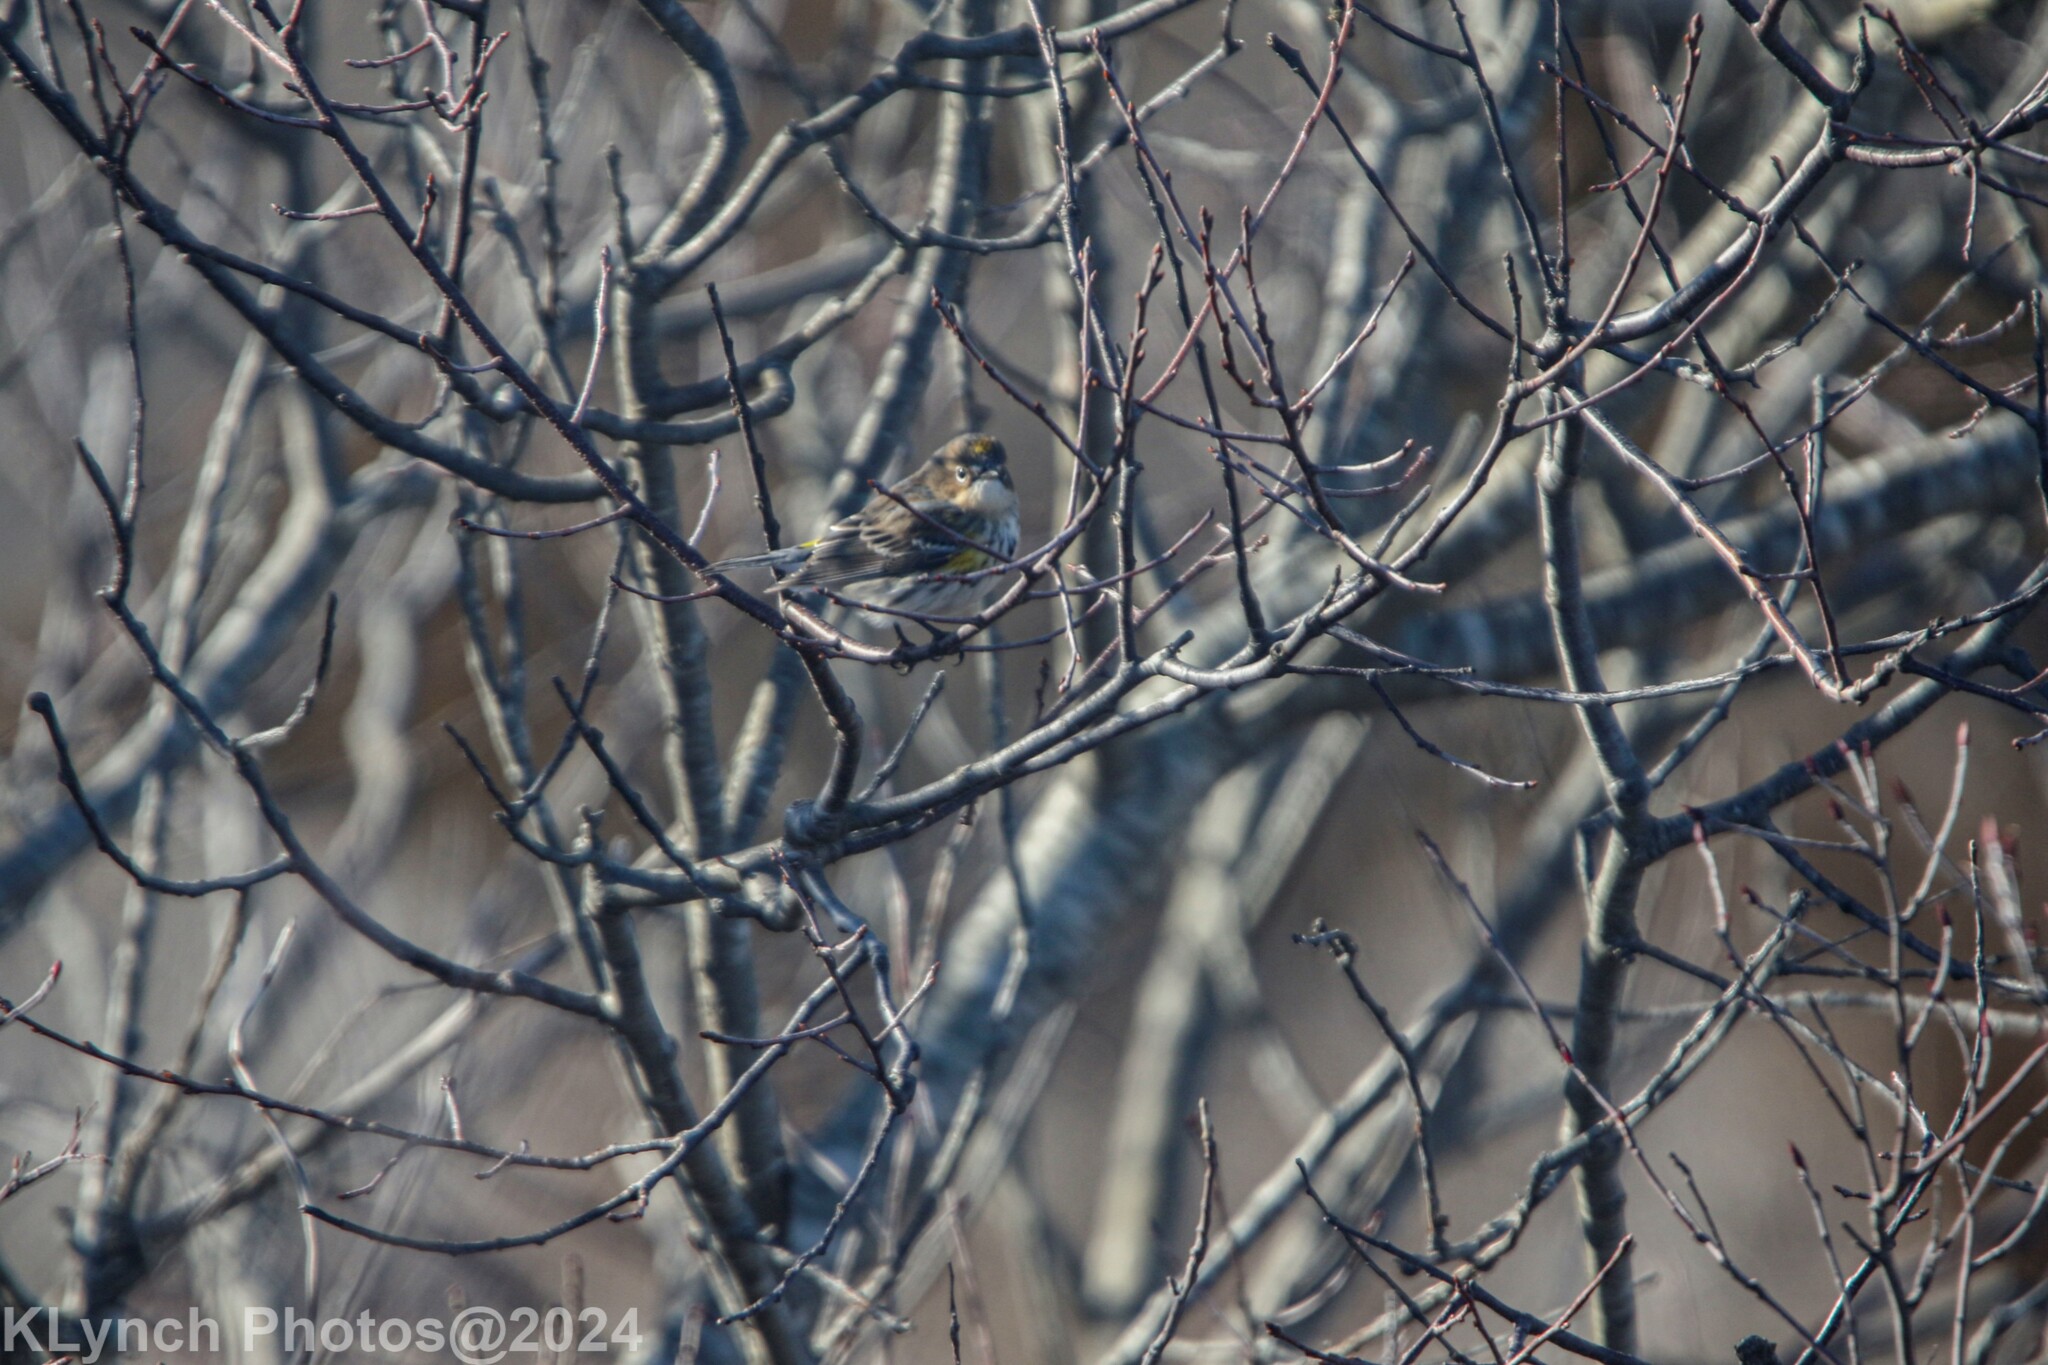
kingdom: Animalia
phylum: Chordata
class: Aves
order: Passeriformes
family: Parulidae
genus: Setophaga
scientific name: Setophaga coronata
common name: Myrtle warbler
